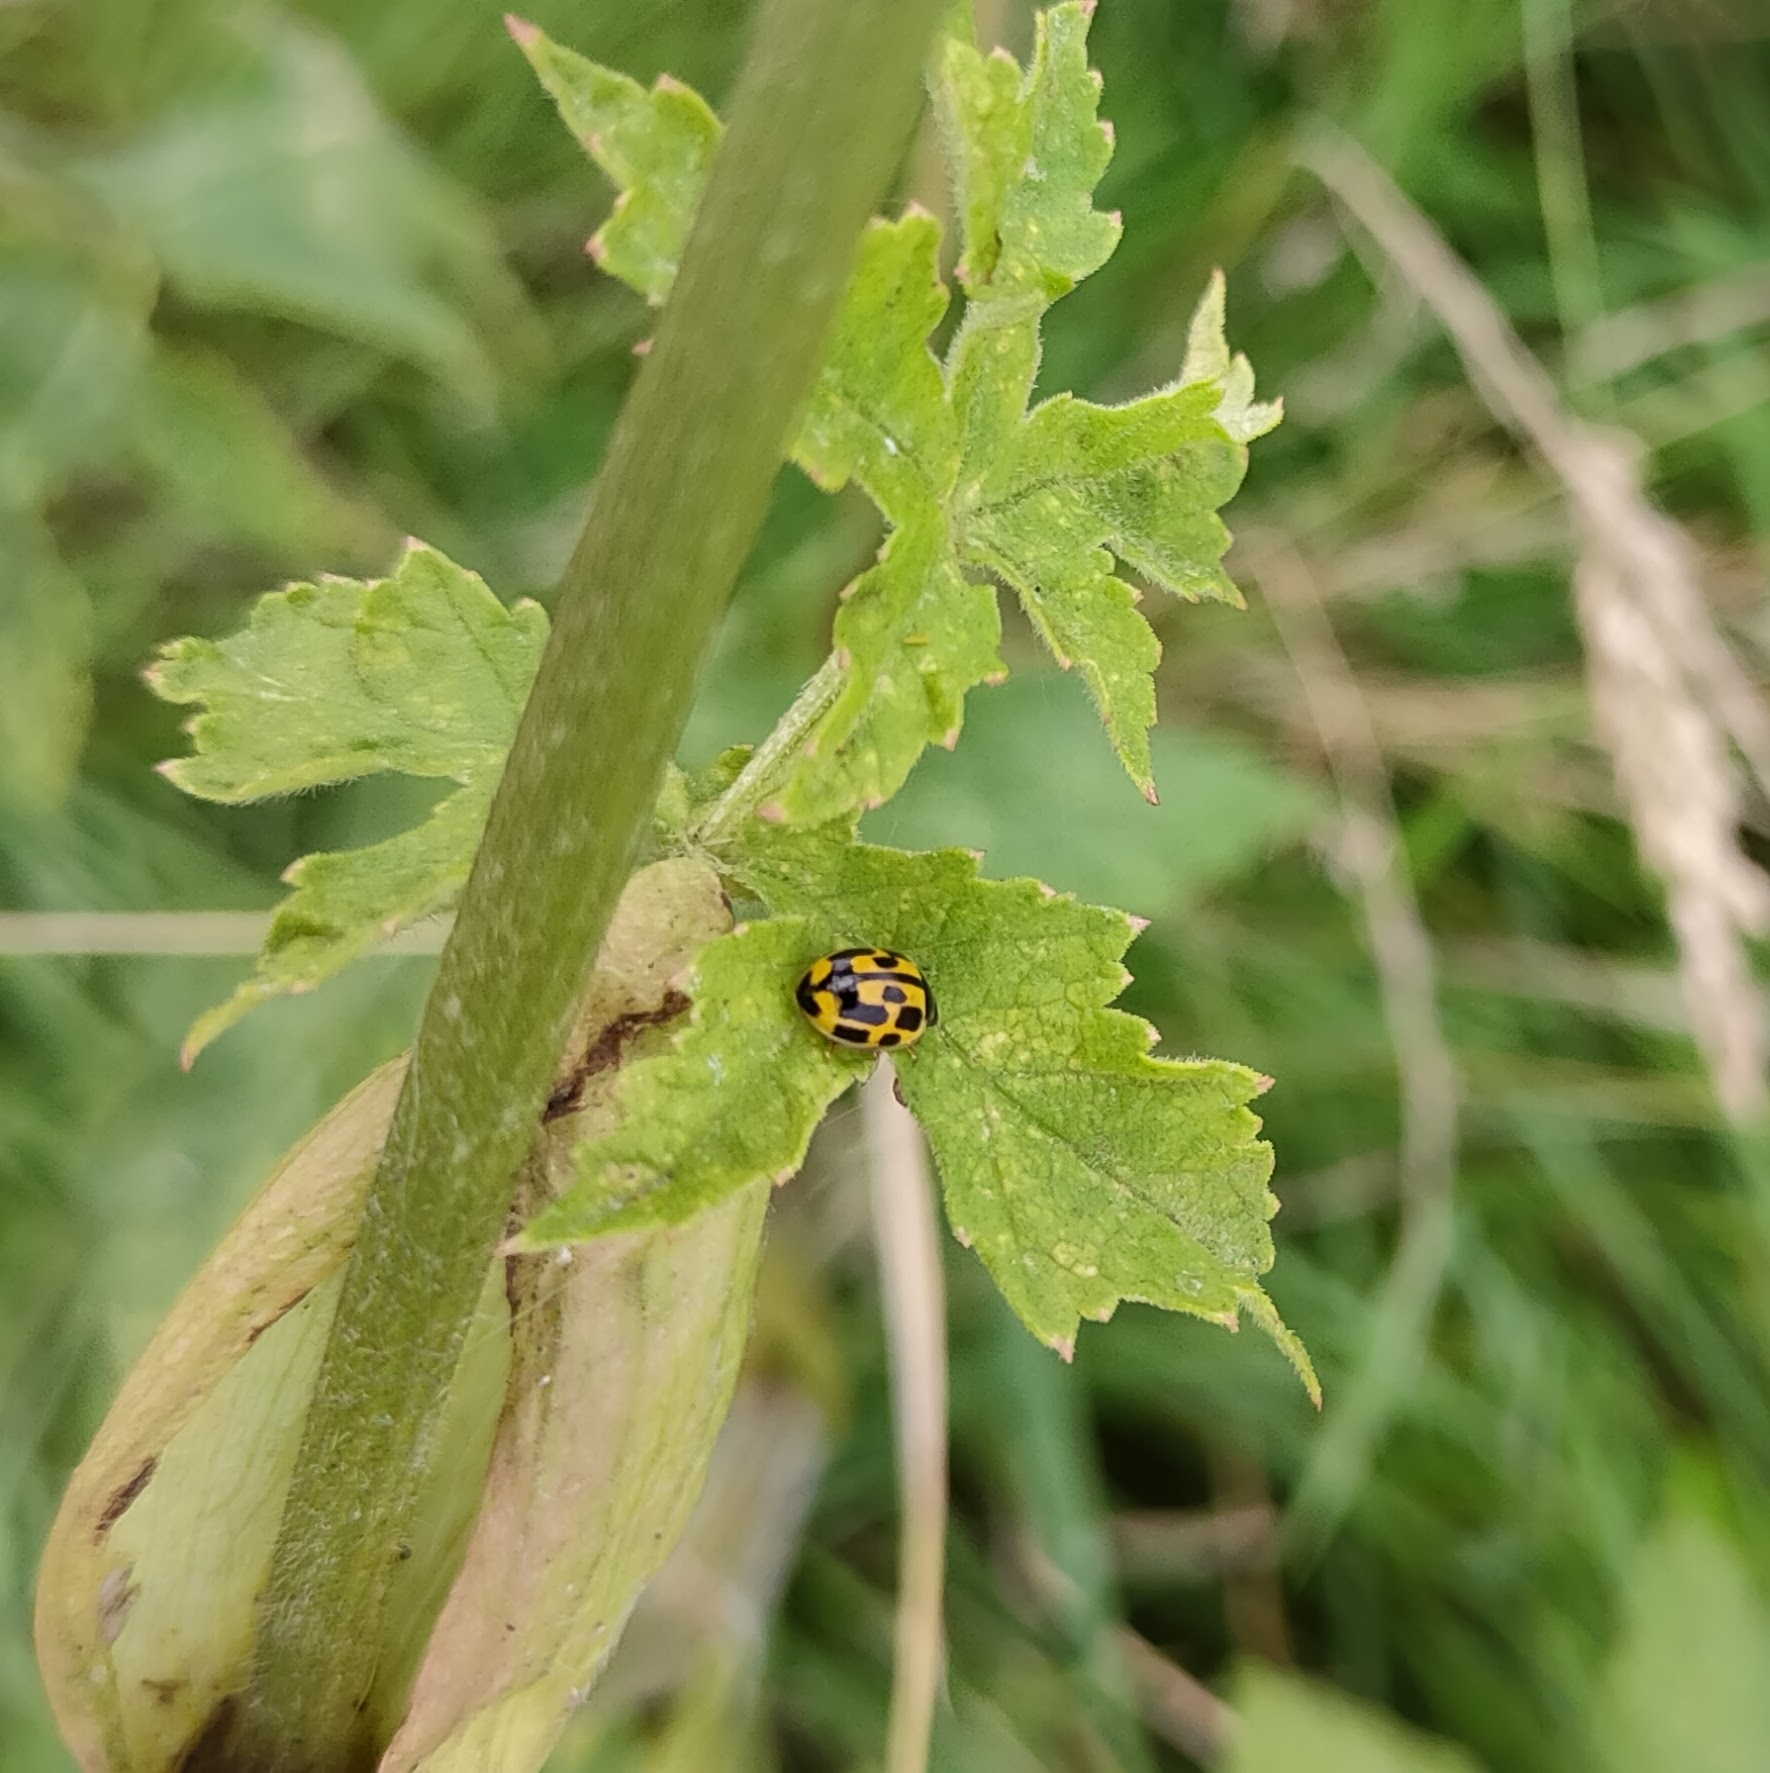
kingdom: Animalia
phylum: Arthropoda
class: Insecta
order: Coleoptera
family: Coccinellidae
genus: Propylaea
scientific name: Propylaea quatuordecimpunctata
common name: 14-spotted ladybird beetle
